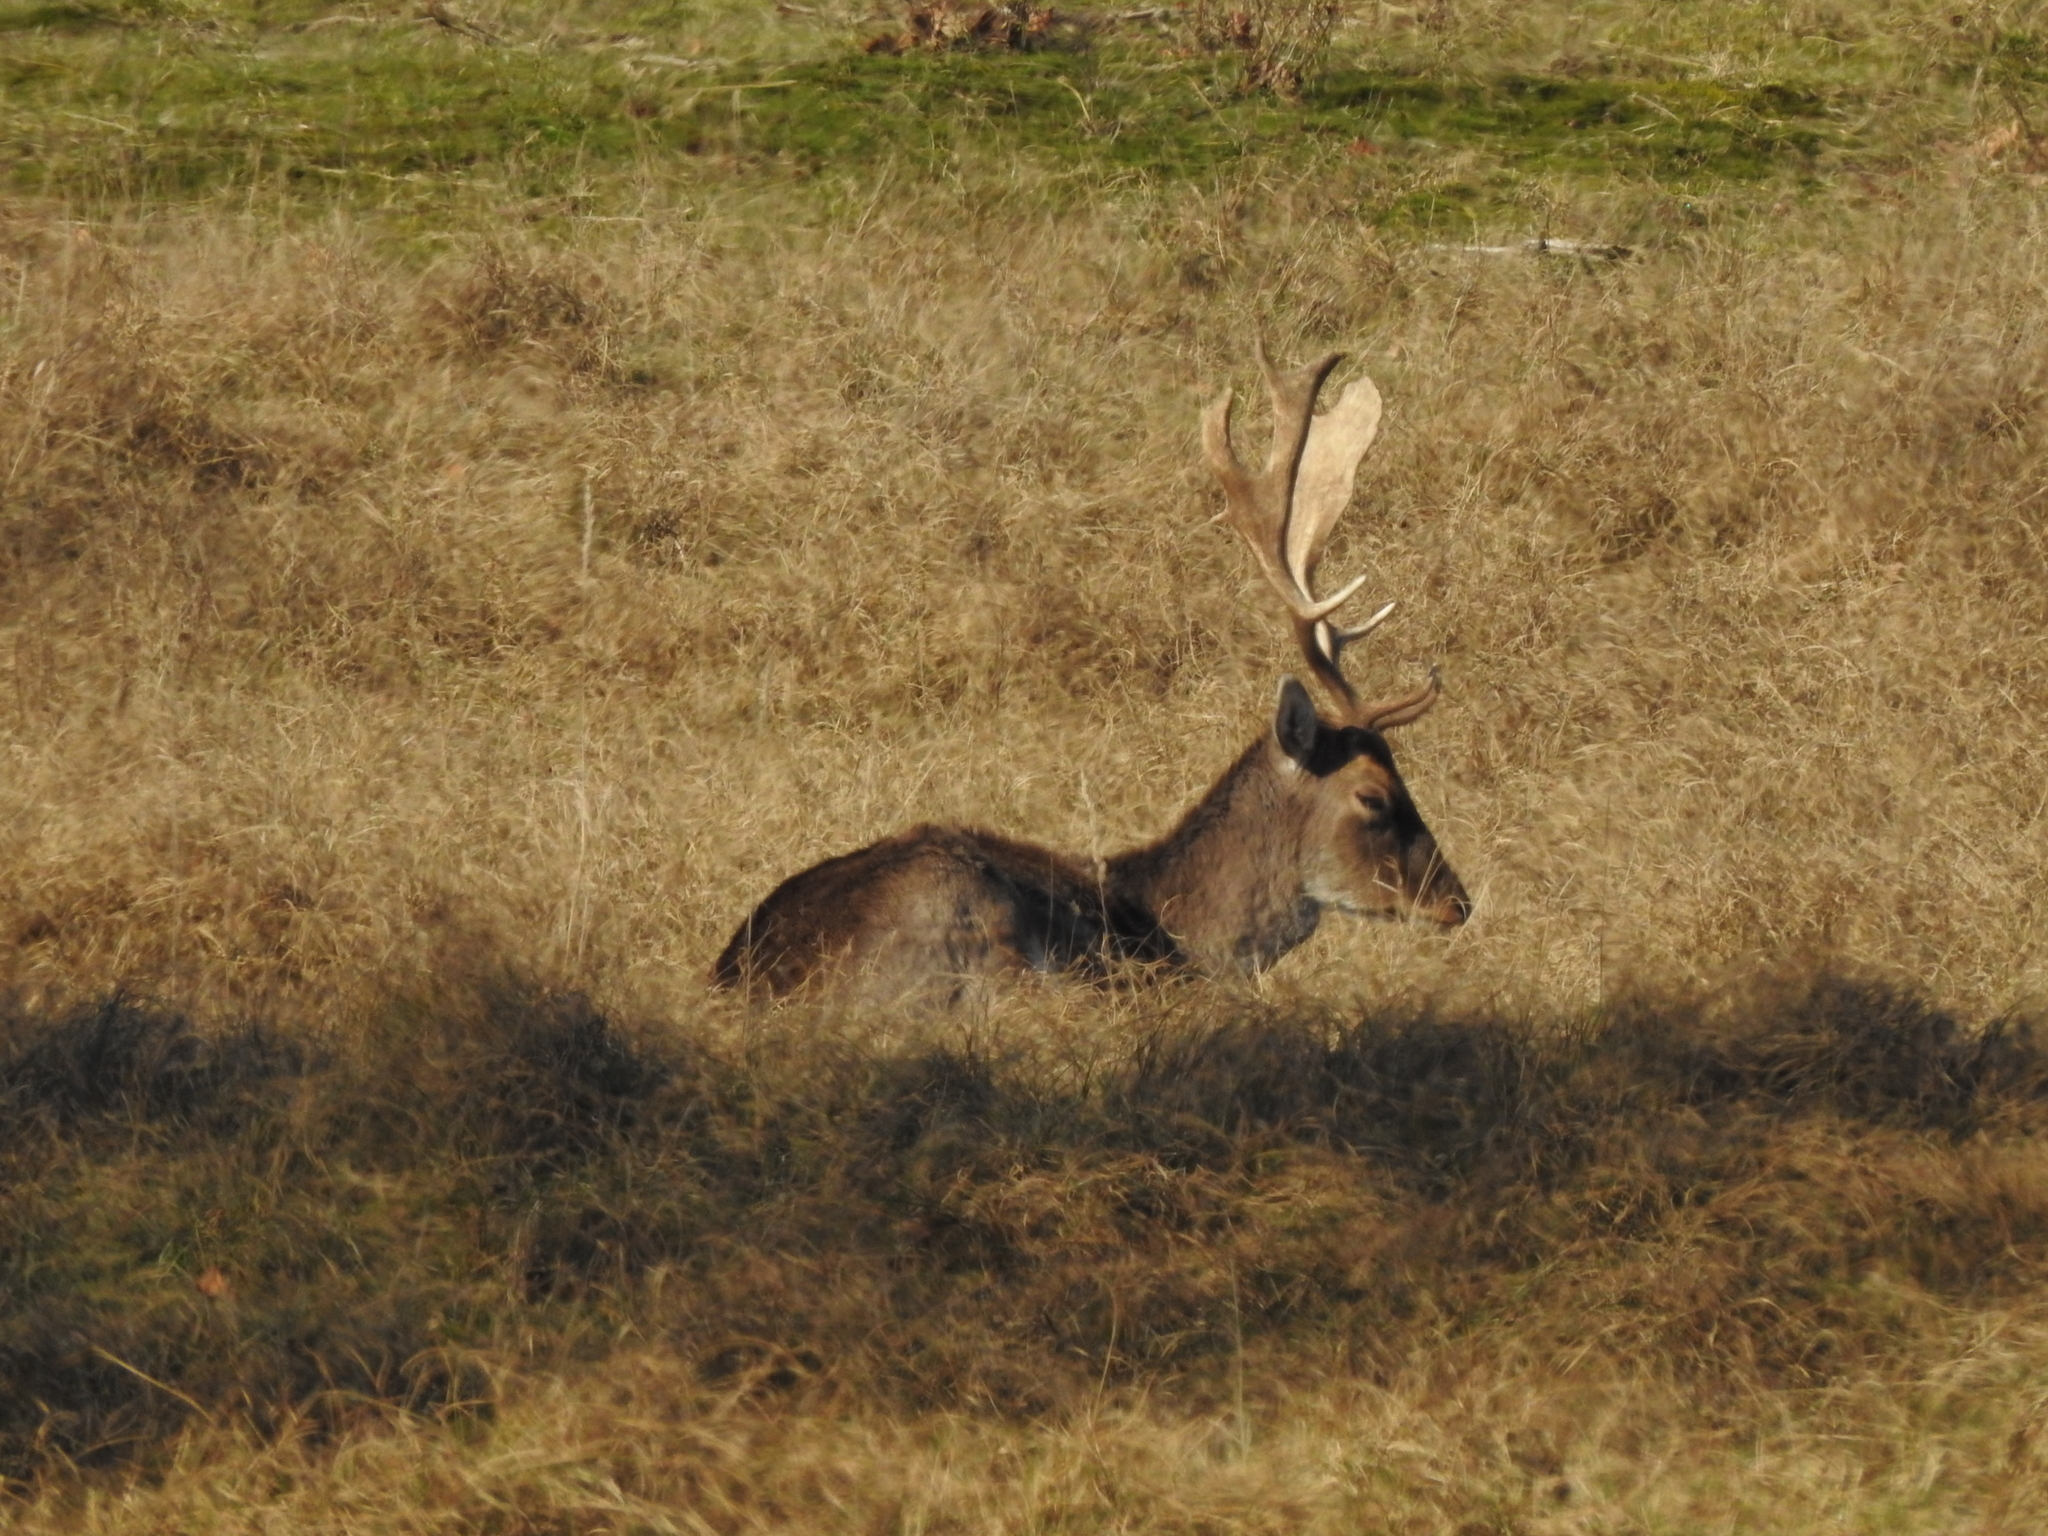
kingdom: Animalia
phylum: Chordata
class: Mammalia
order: Artiodactyla
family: Cervidae
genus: Dama
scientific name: Dama dama
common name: Fallow deer
